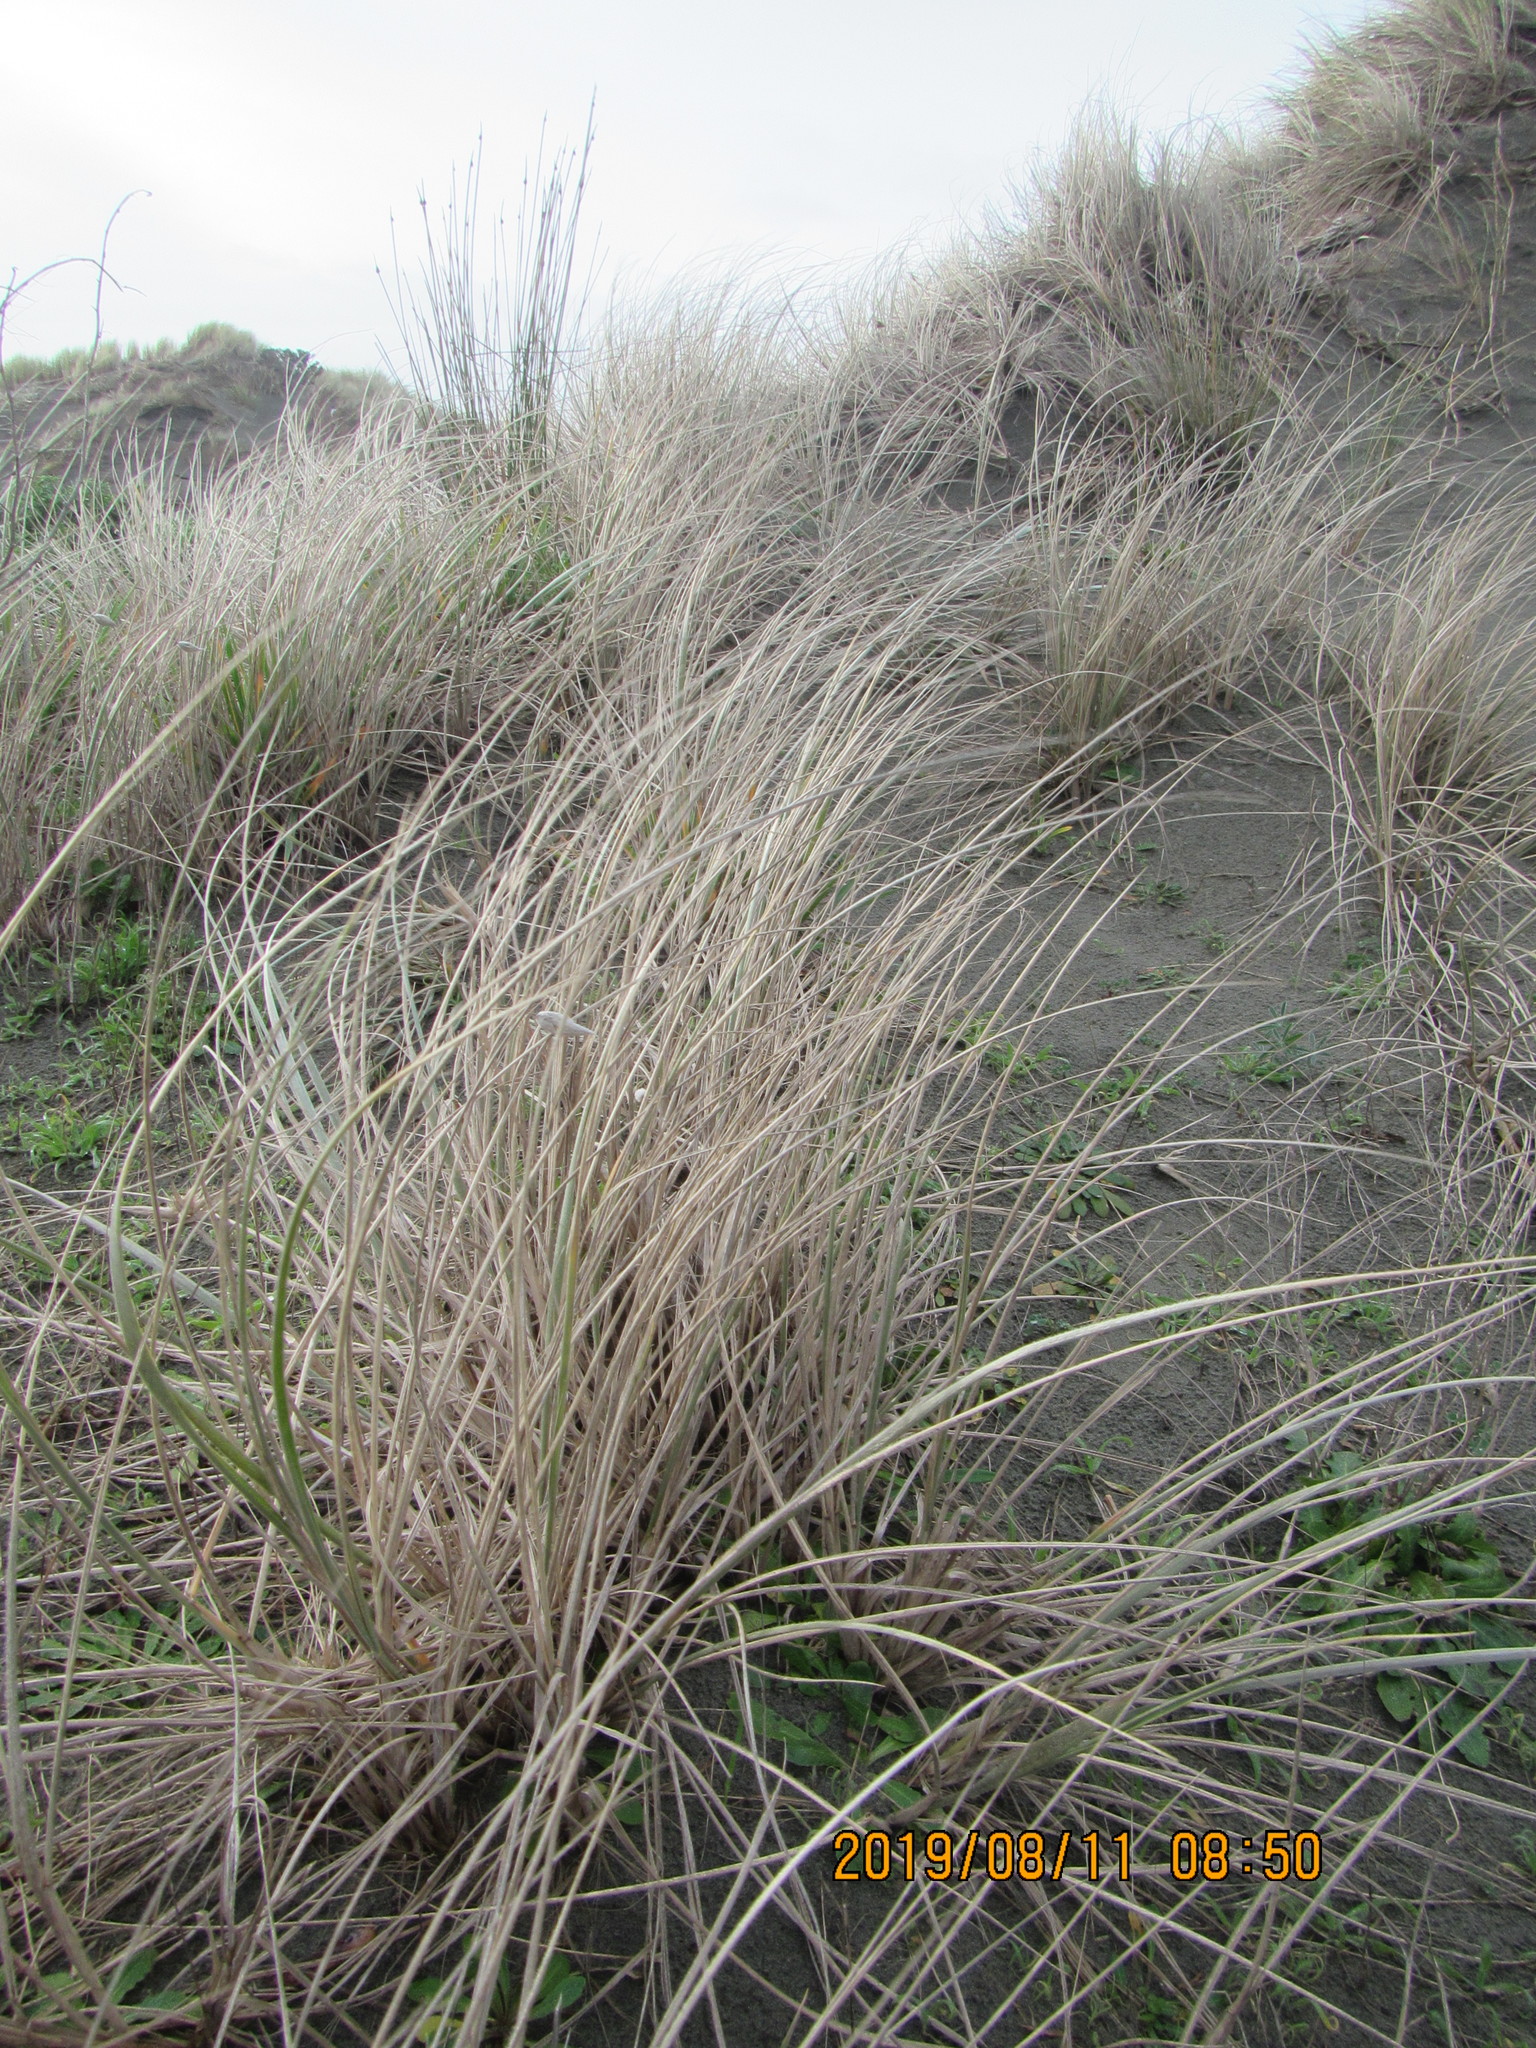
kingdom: Plantae
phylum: Tracheophyta
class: Liliopsida
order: Poales
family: Poaceae
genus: Spinifex
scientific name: Spinifex sericeus
